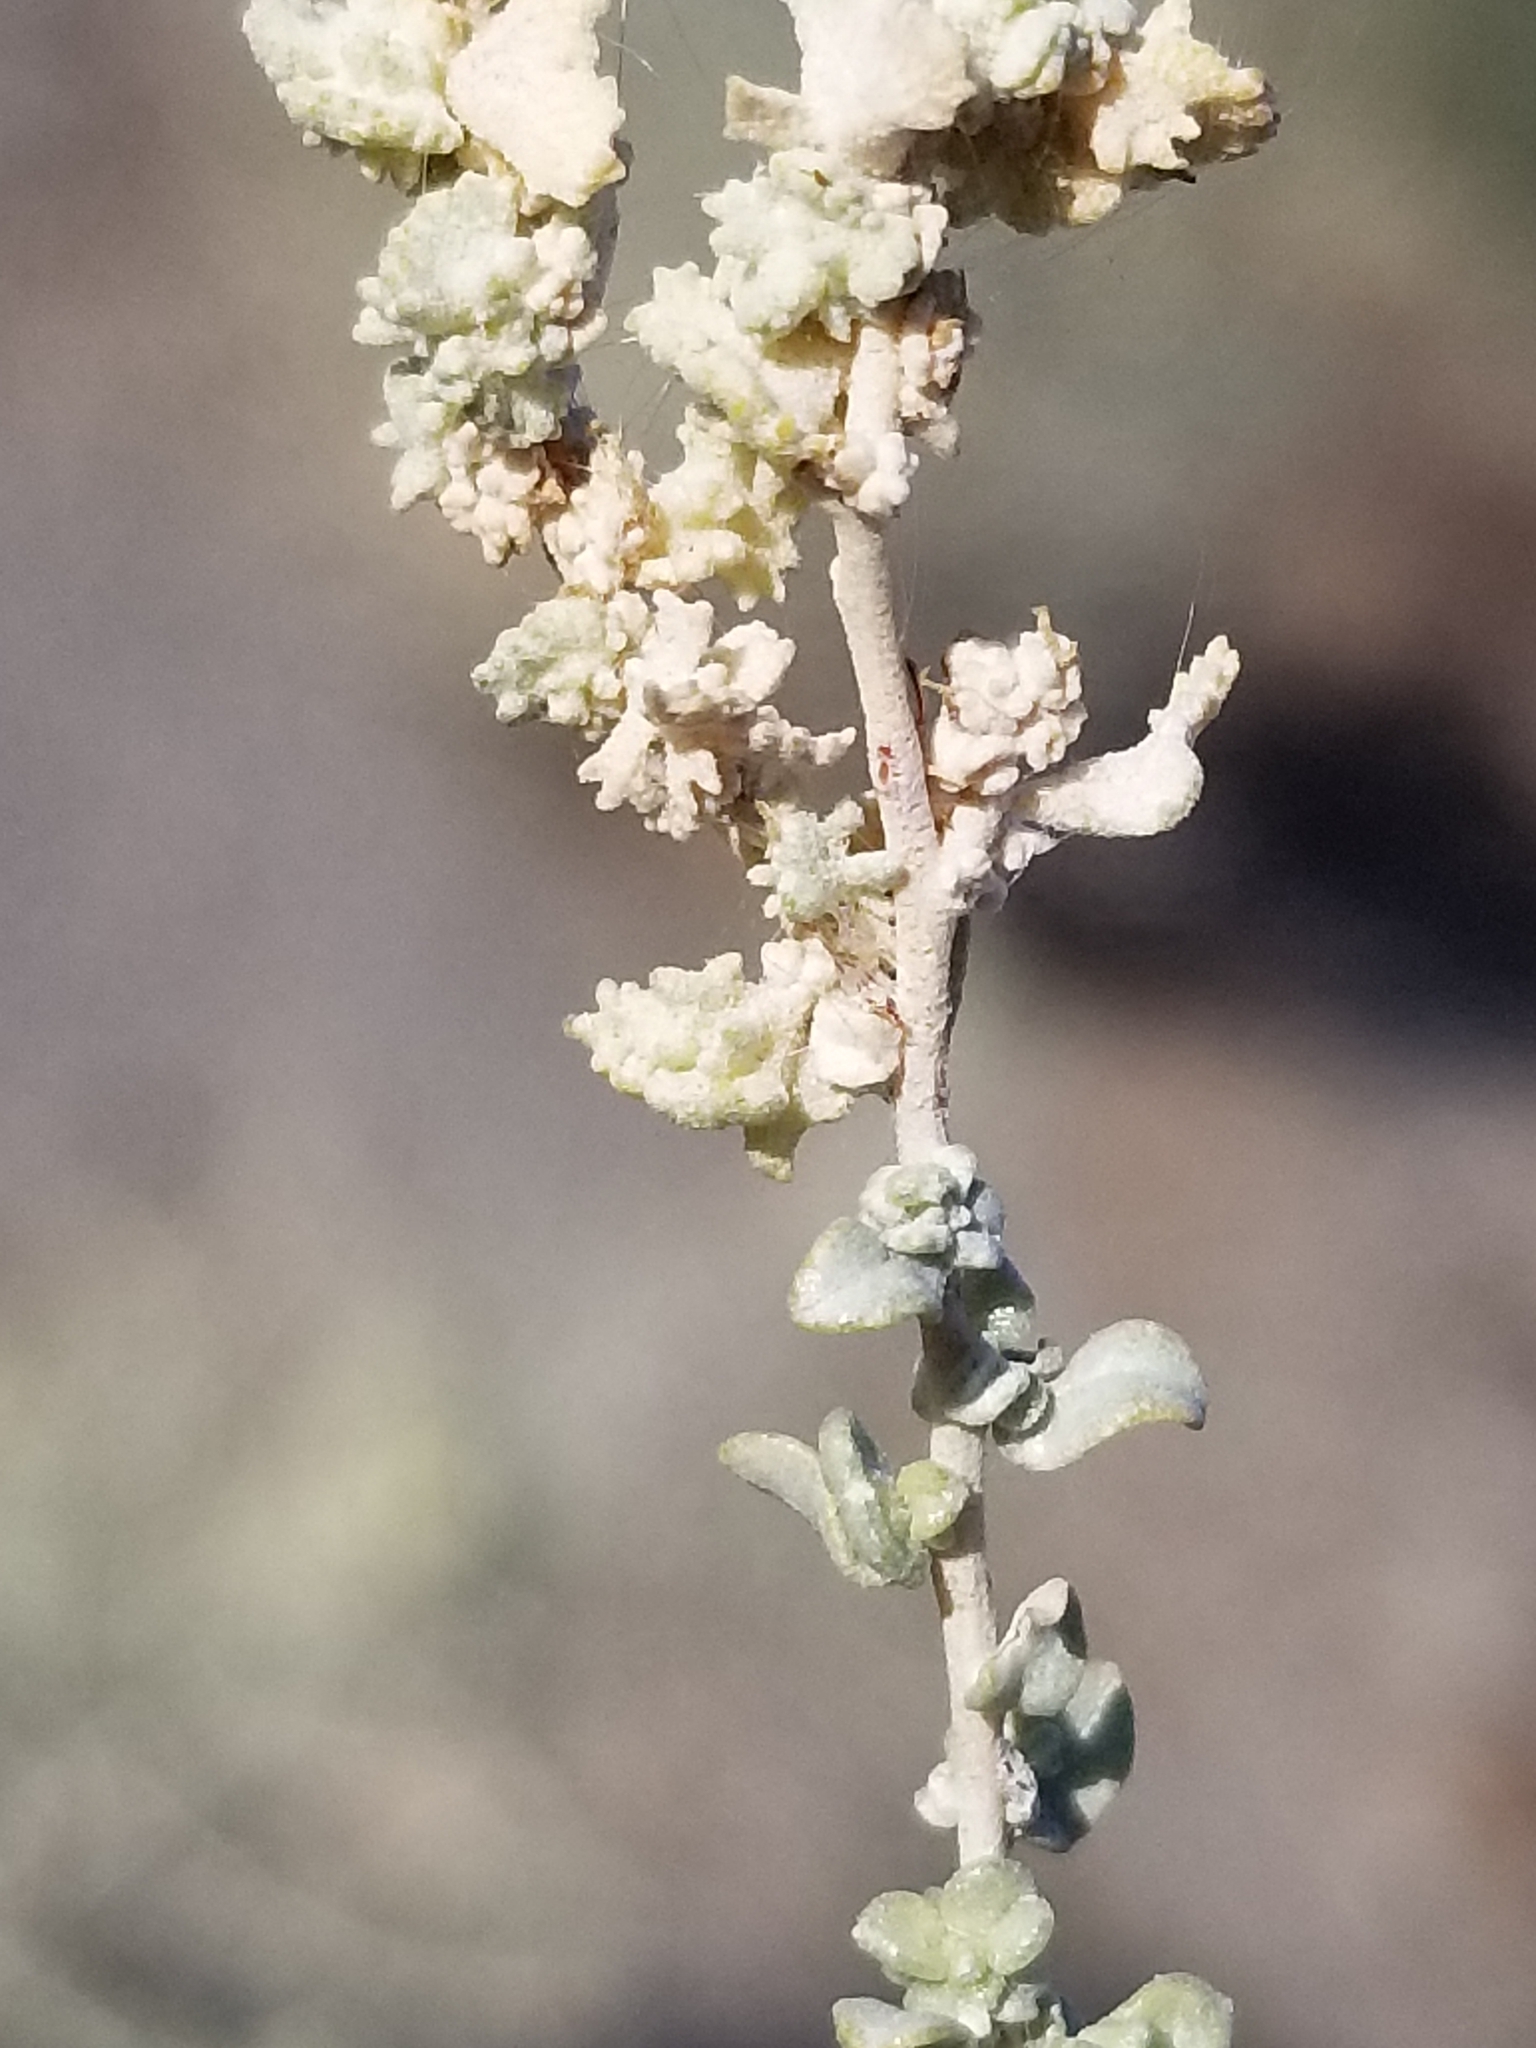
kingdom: Plantae
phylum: Tracheophyta
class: Magnoliopsida
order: Caryophyllales
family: Amaranthaceae
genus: Atriplex
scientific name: Atriplex polycarpa
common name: Desert saltbush
